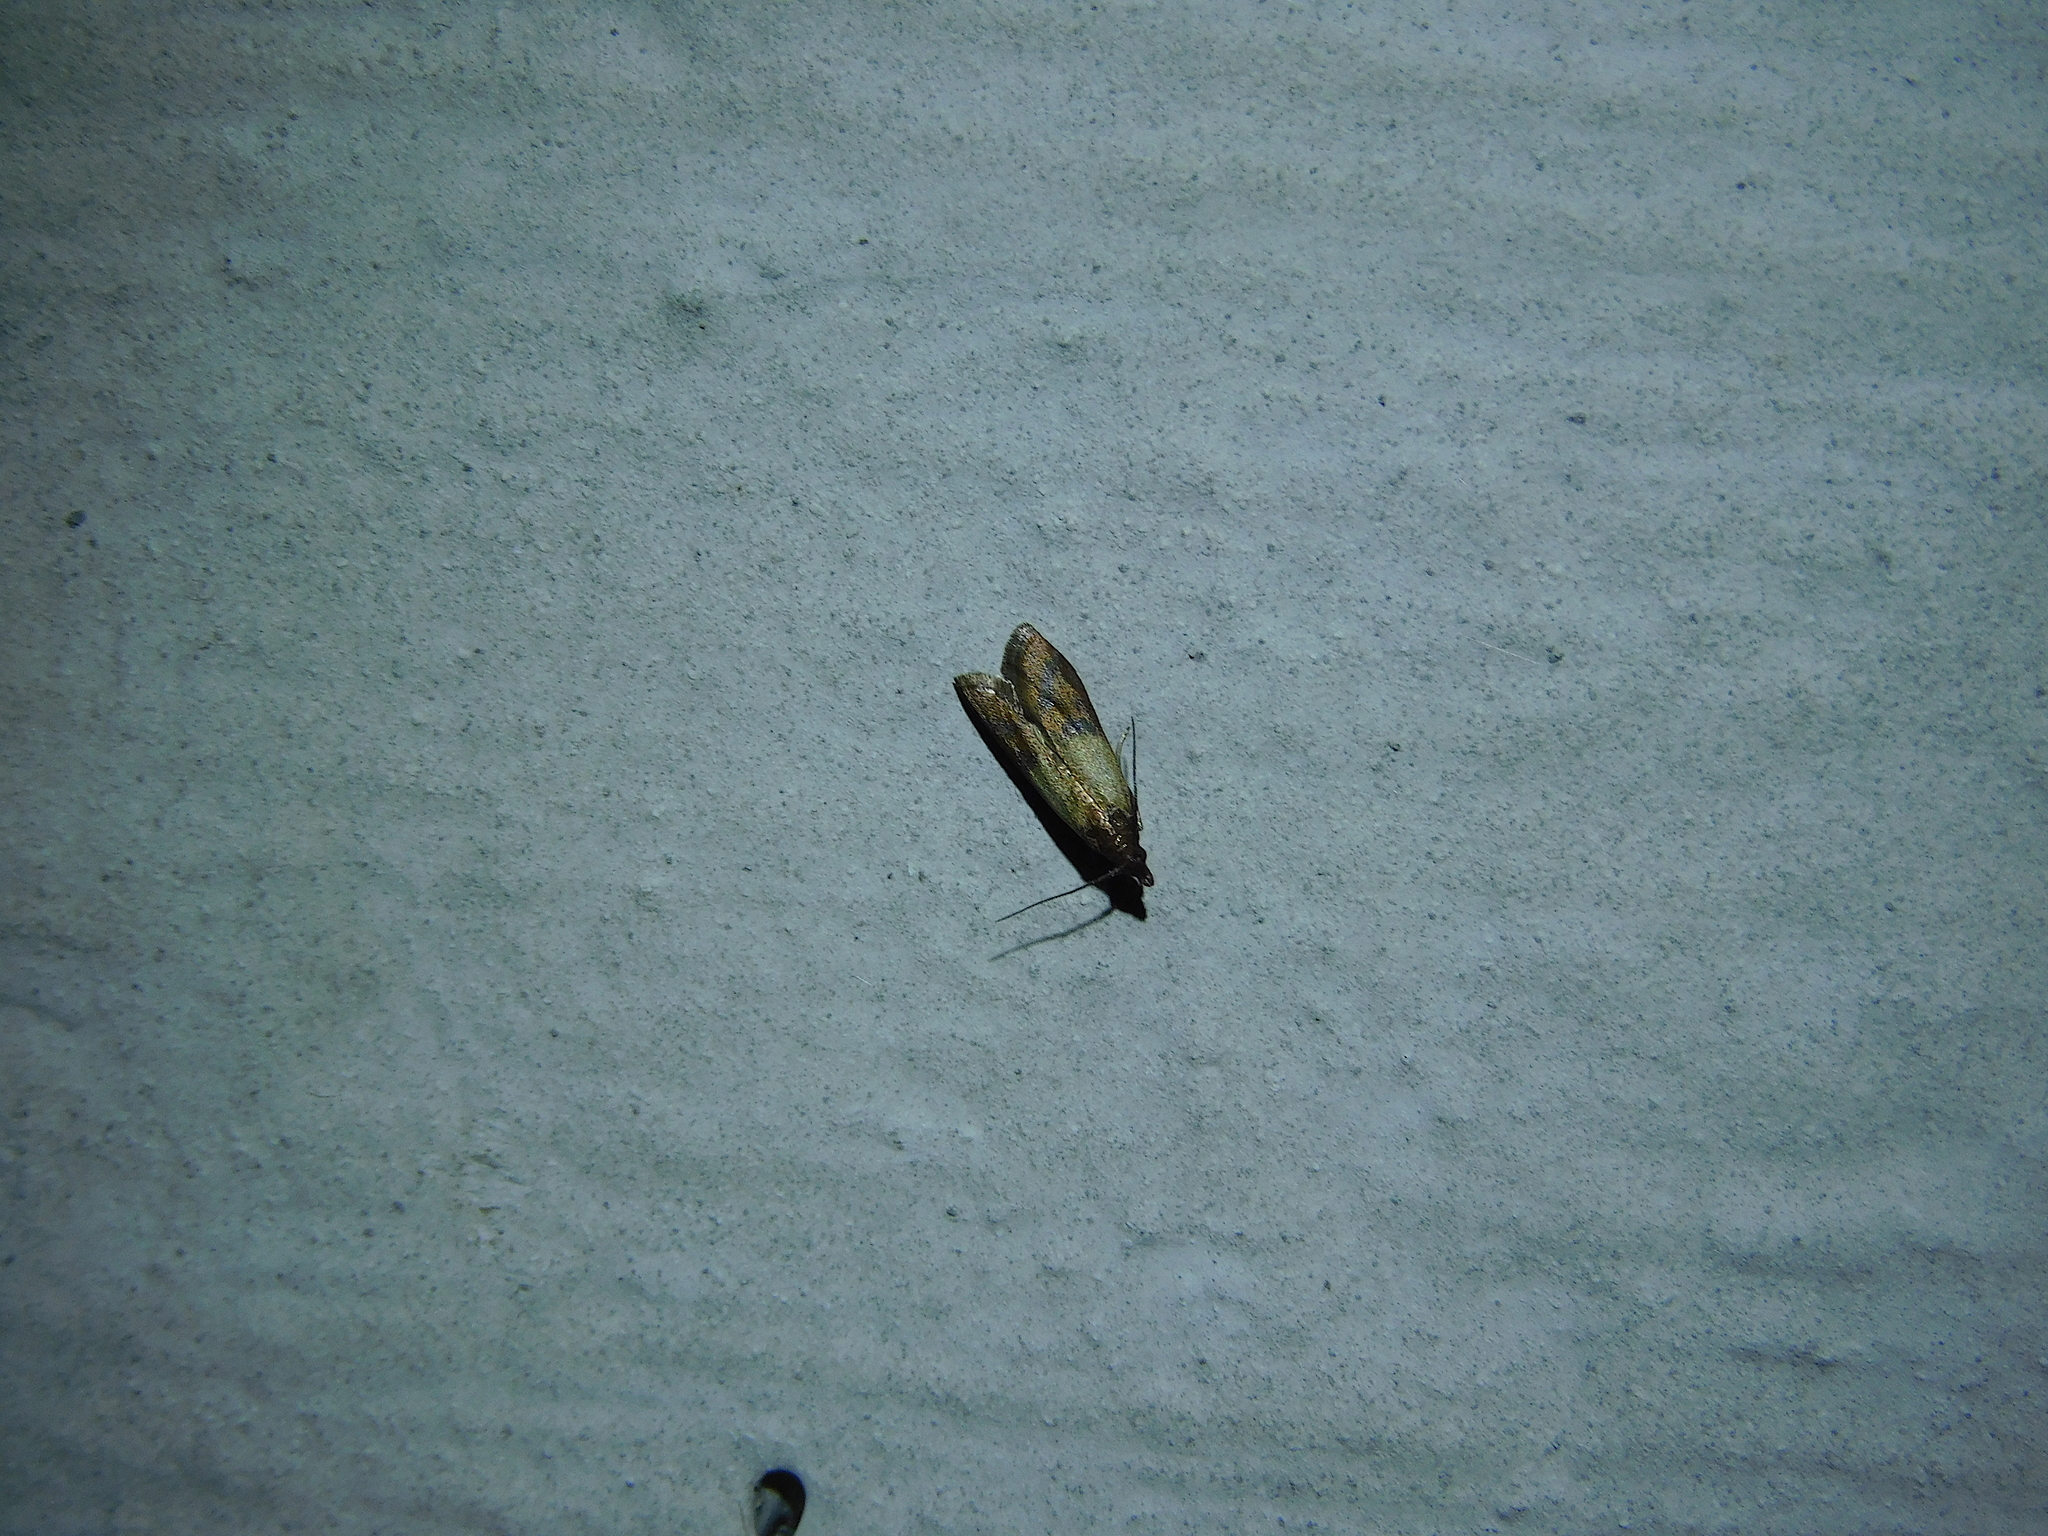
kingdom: Animalia
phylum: Arthropoda
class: Insecta
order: Lepidoptera
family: Pyralidae
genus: Plodia
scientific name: Plodia interpunctella
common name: Indian meal moth
